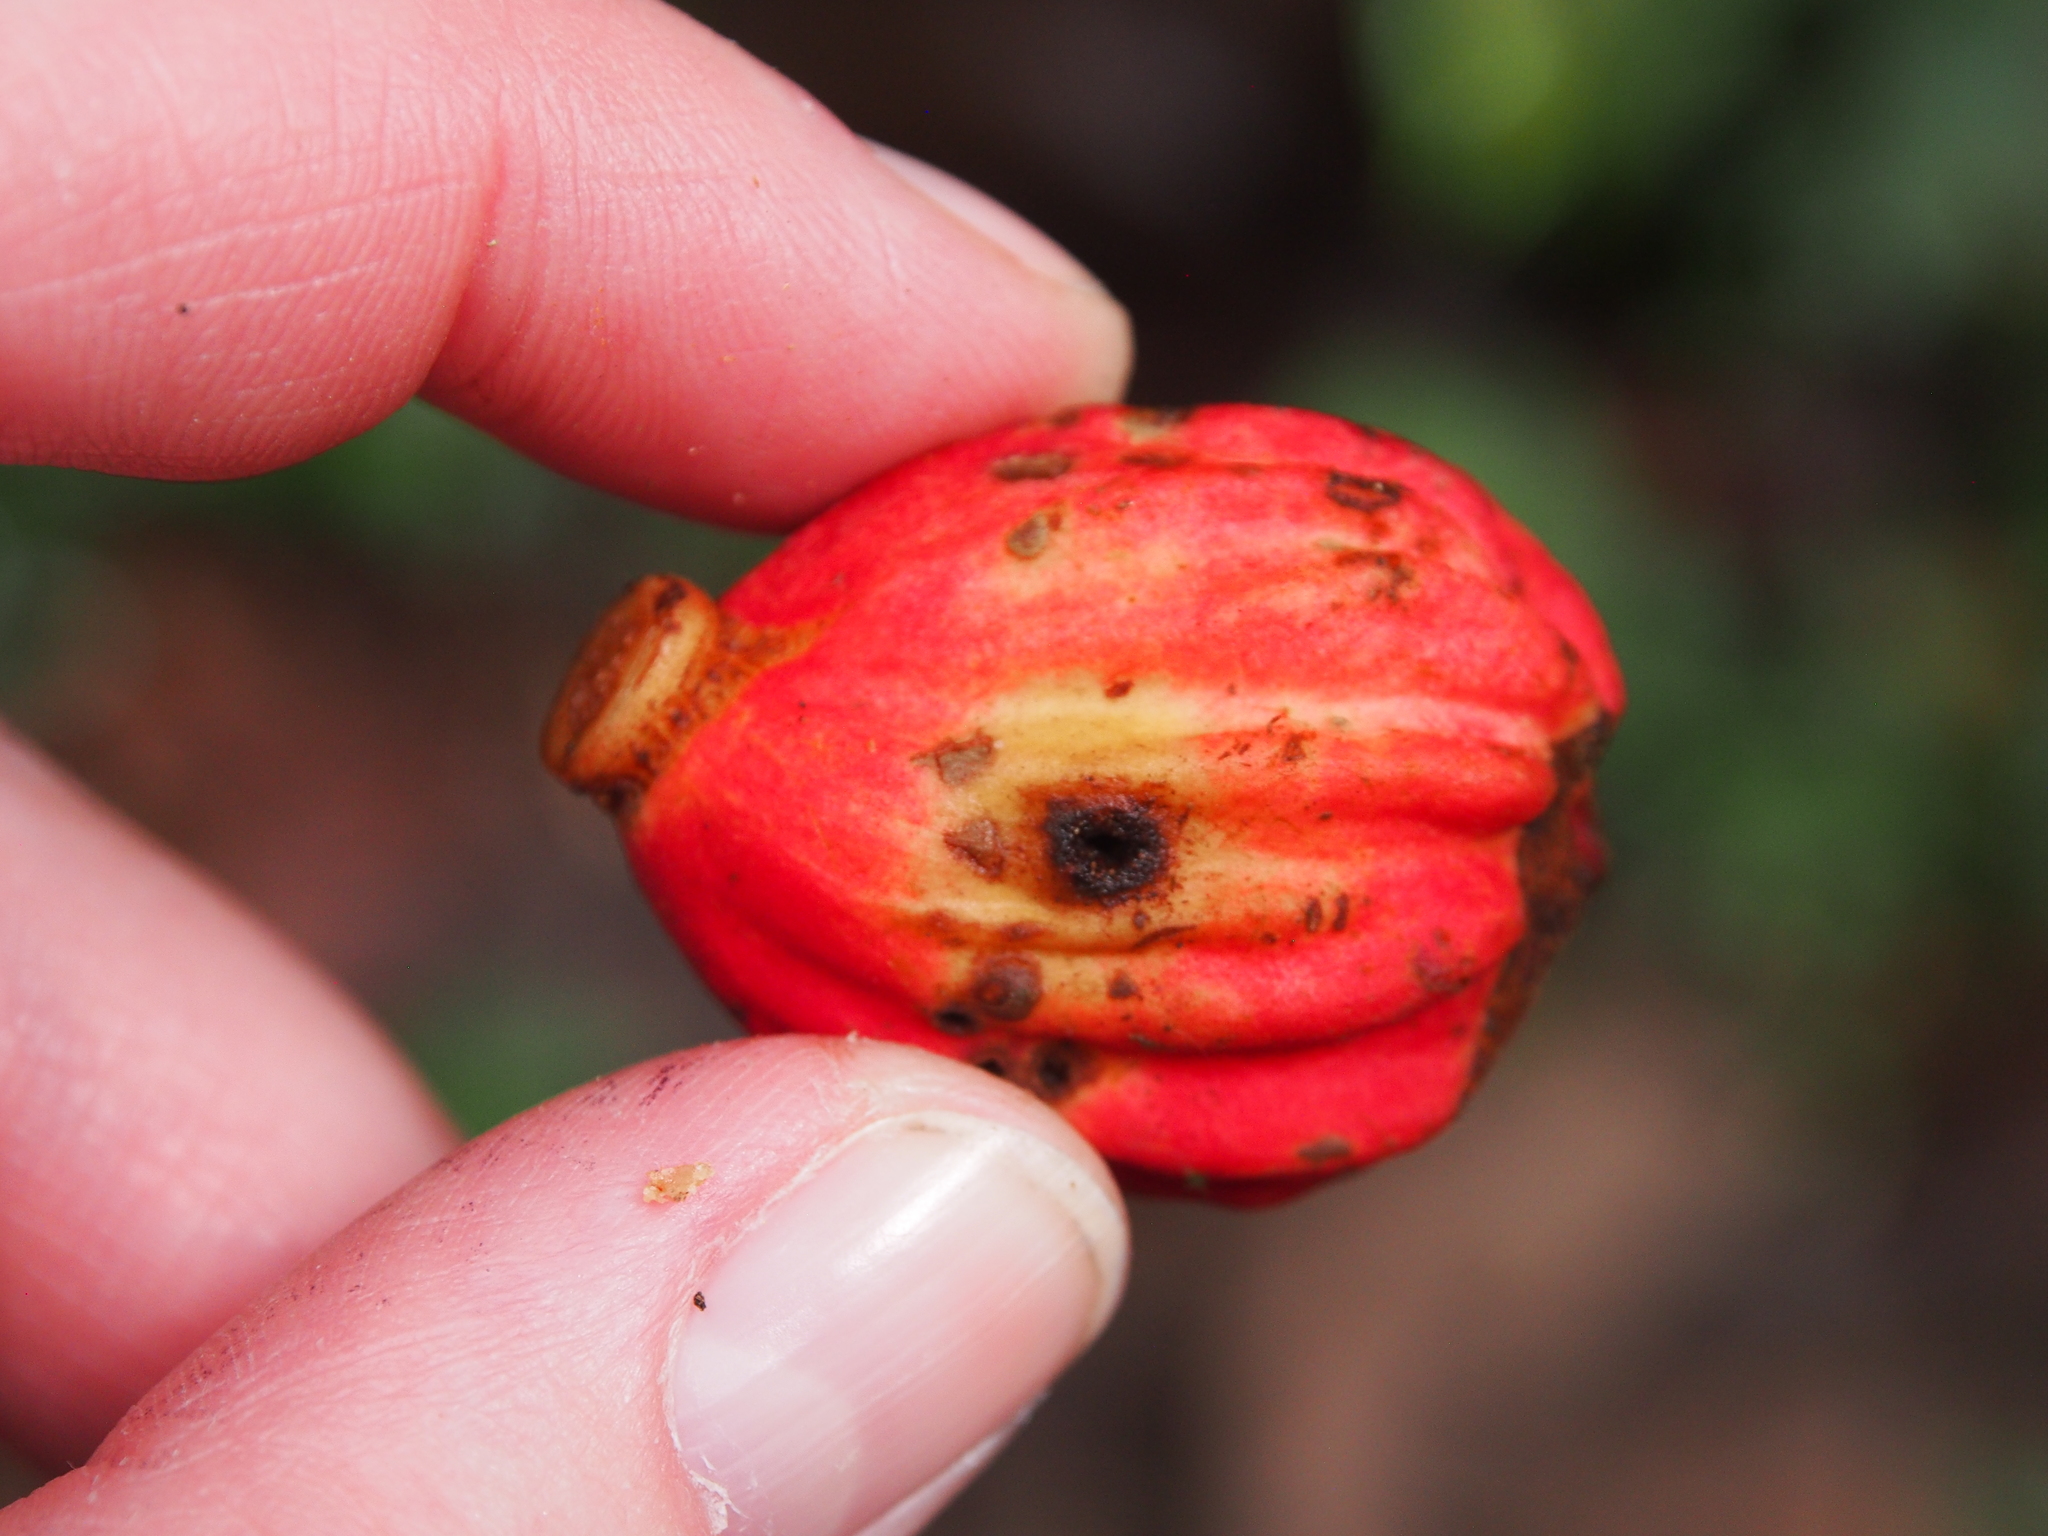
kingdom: Plantae
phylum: Tracheophyta
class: Magnoliopsida
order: Sapindales
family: Meliaceae
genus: Guarea
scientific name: Guarea rhopalocarpa
